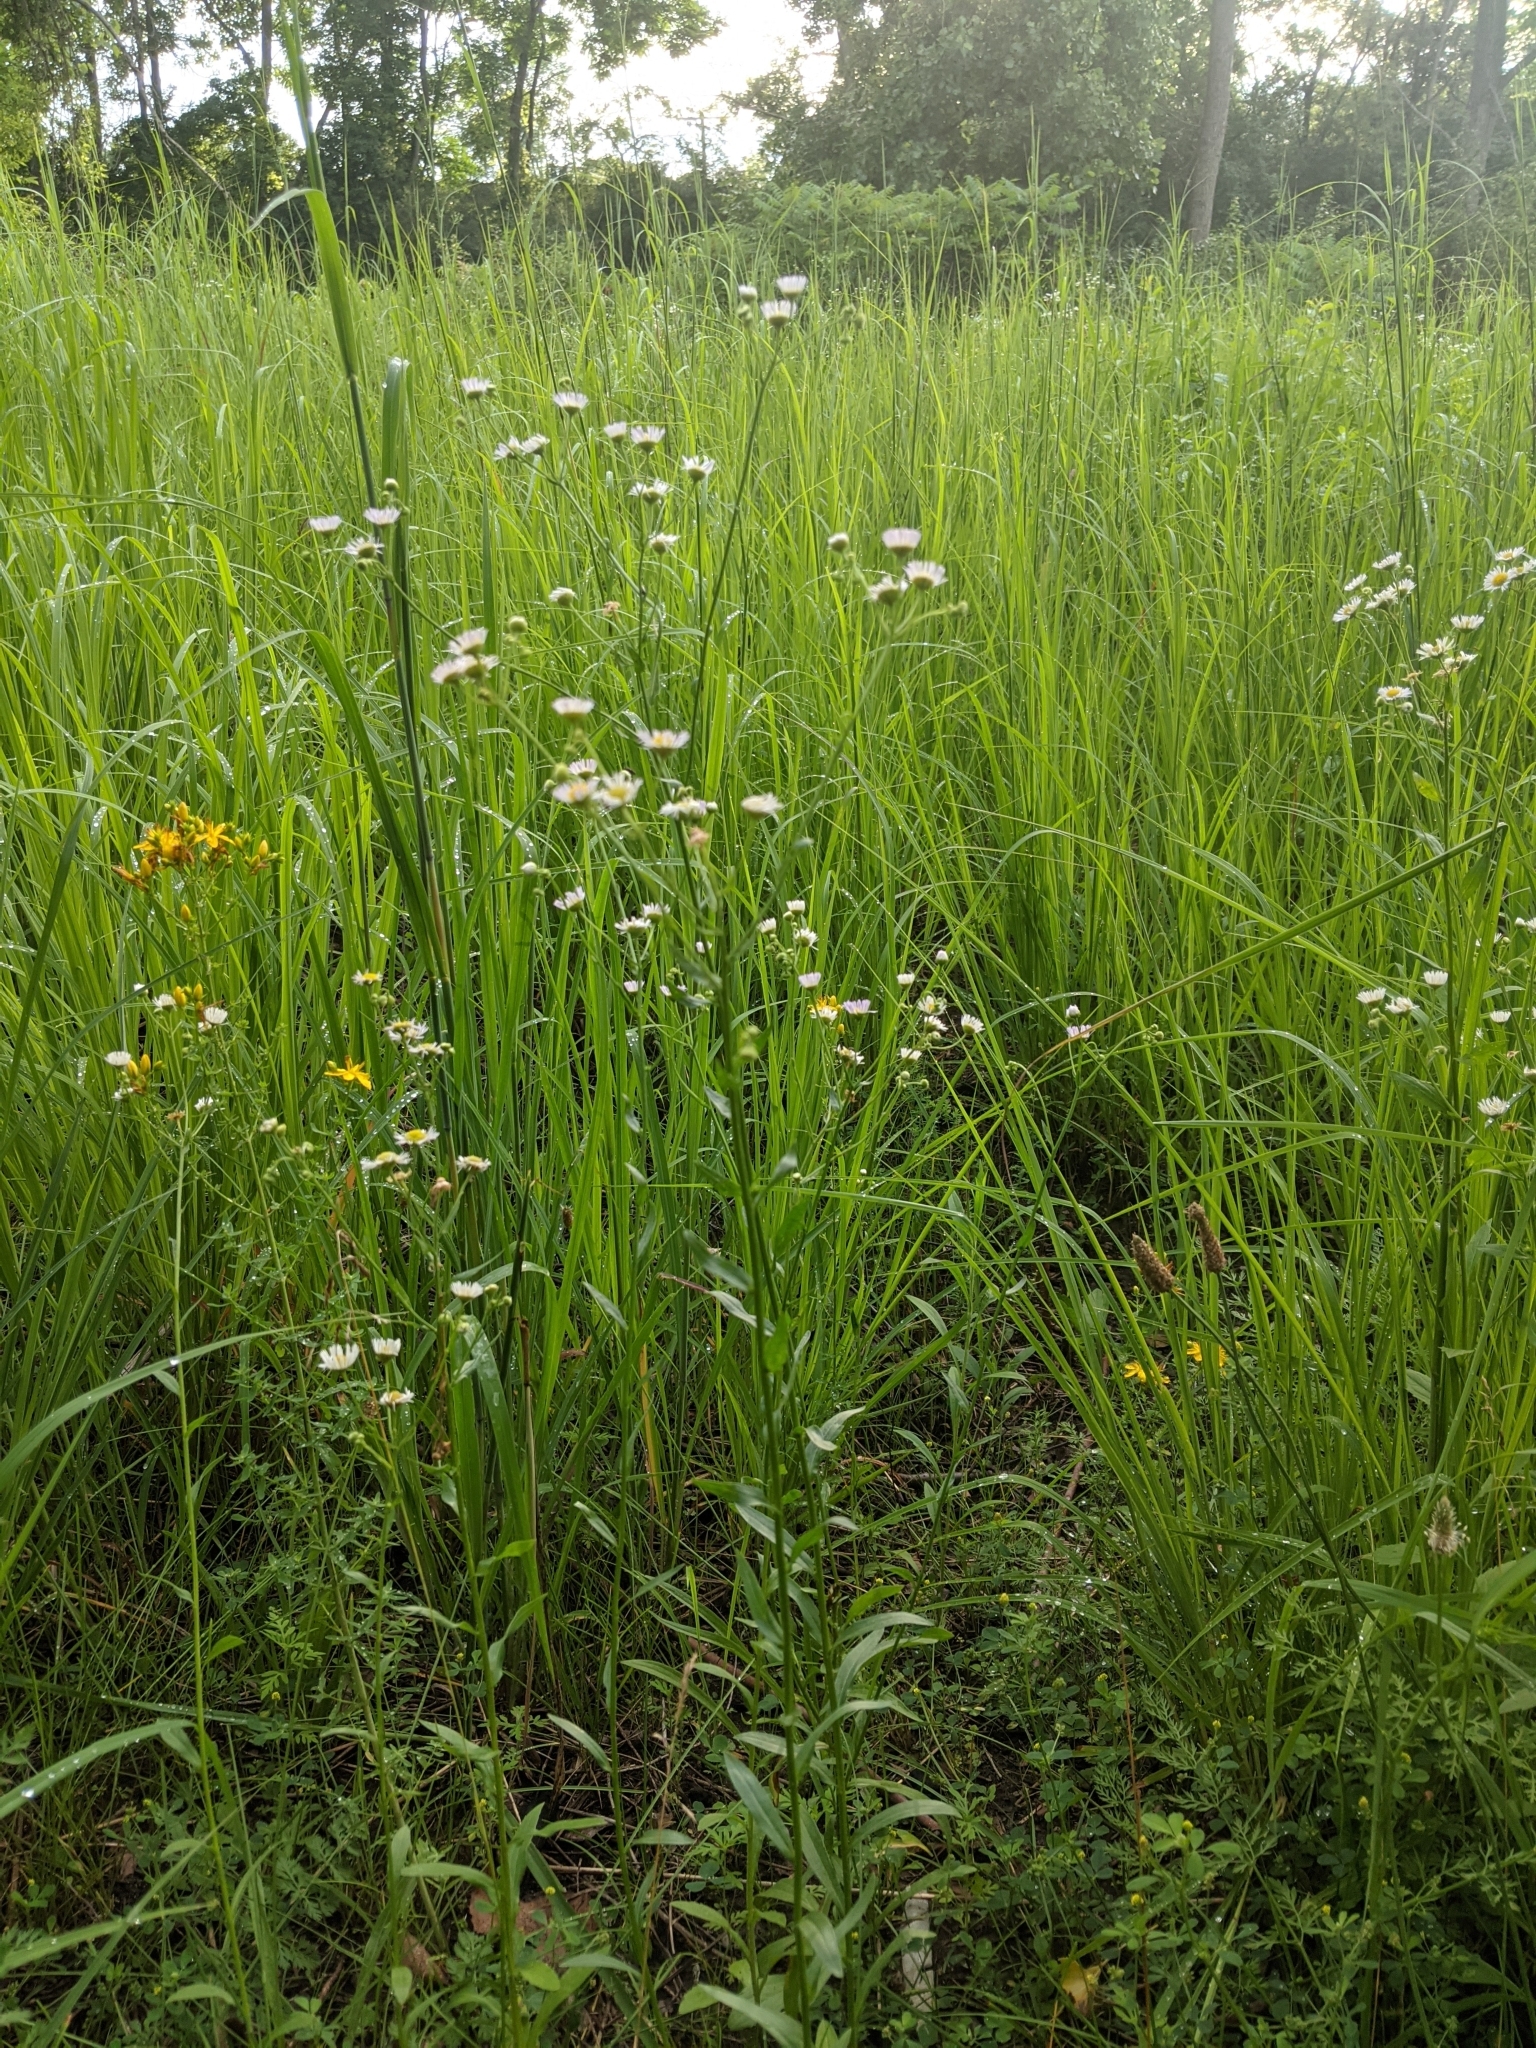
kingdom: Plantae
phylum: Tracheophyta
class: Magnoliopsida
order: Asterales
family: Asteraceae
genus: Erigeron
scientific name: Erigeron strigosus
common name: Common eastern fleabane
